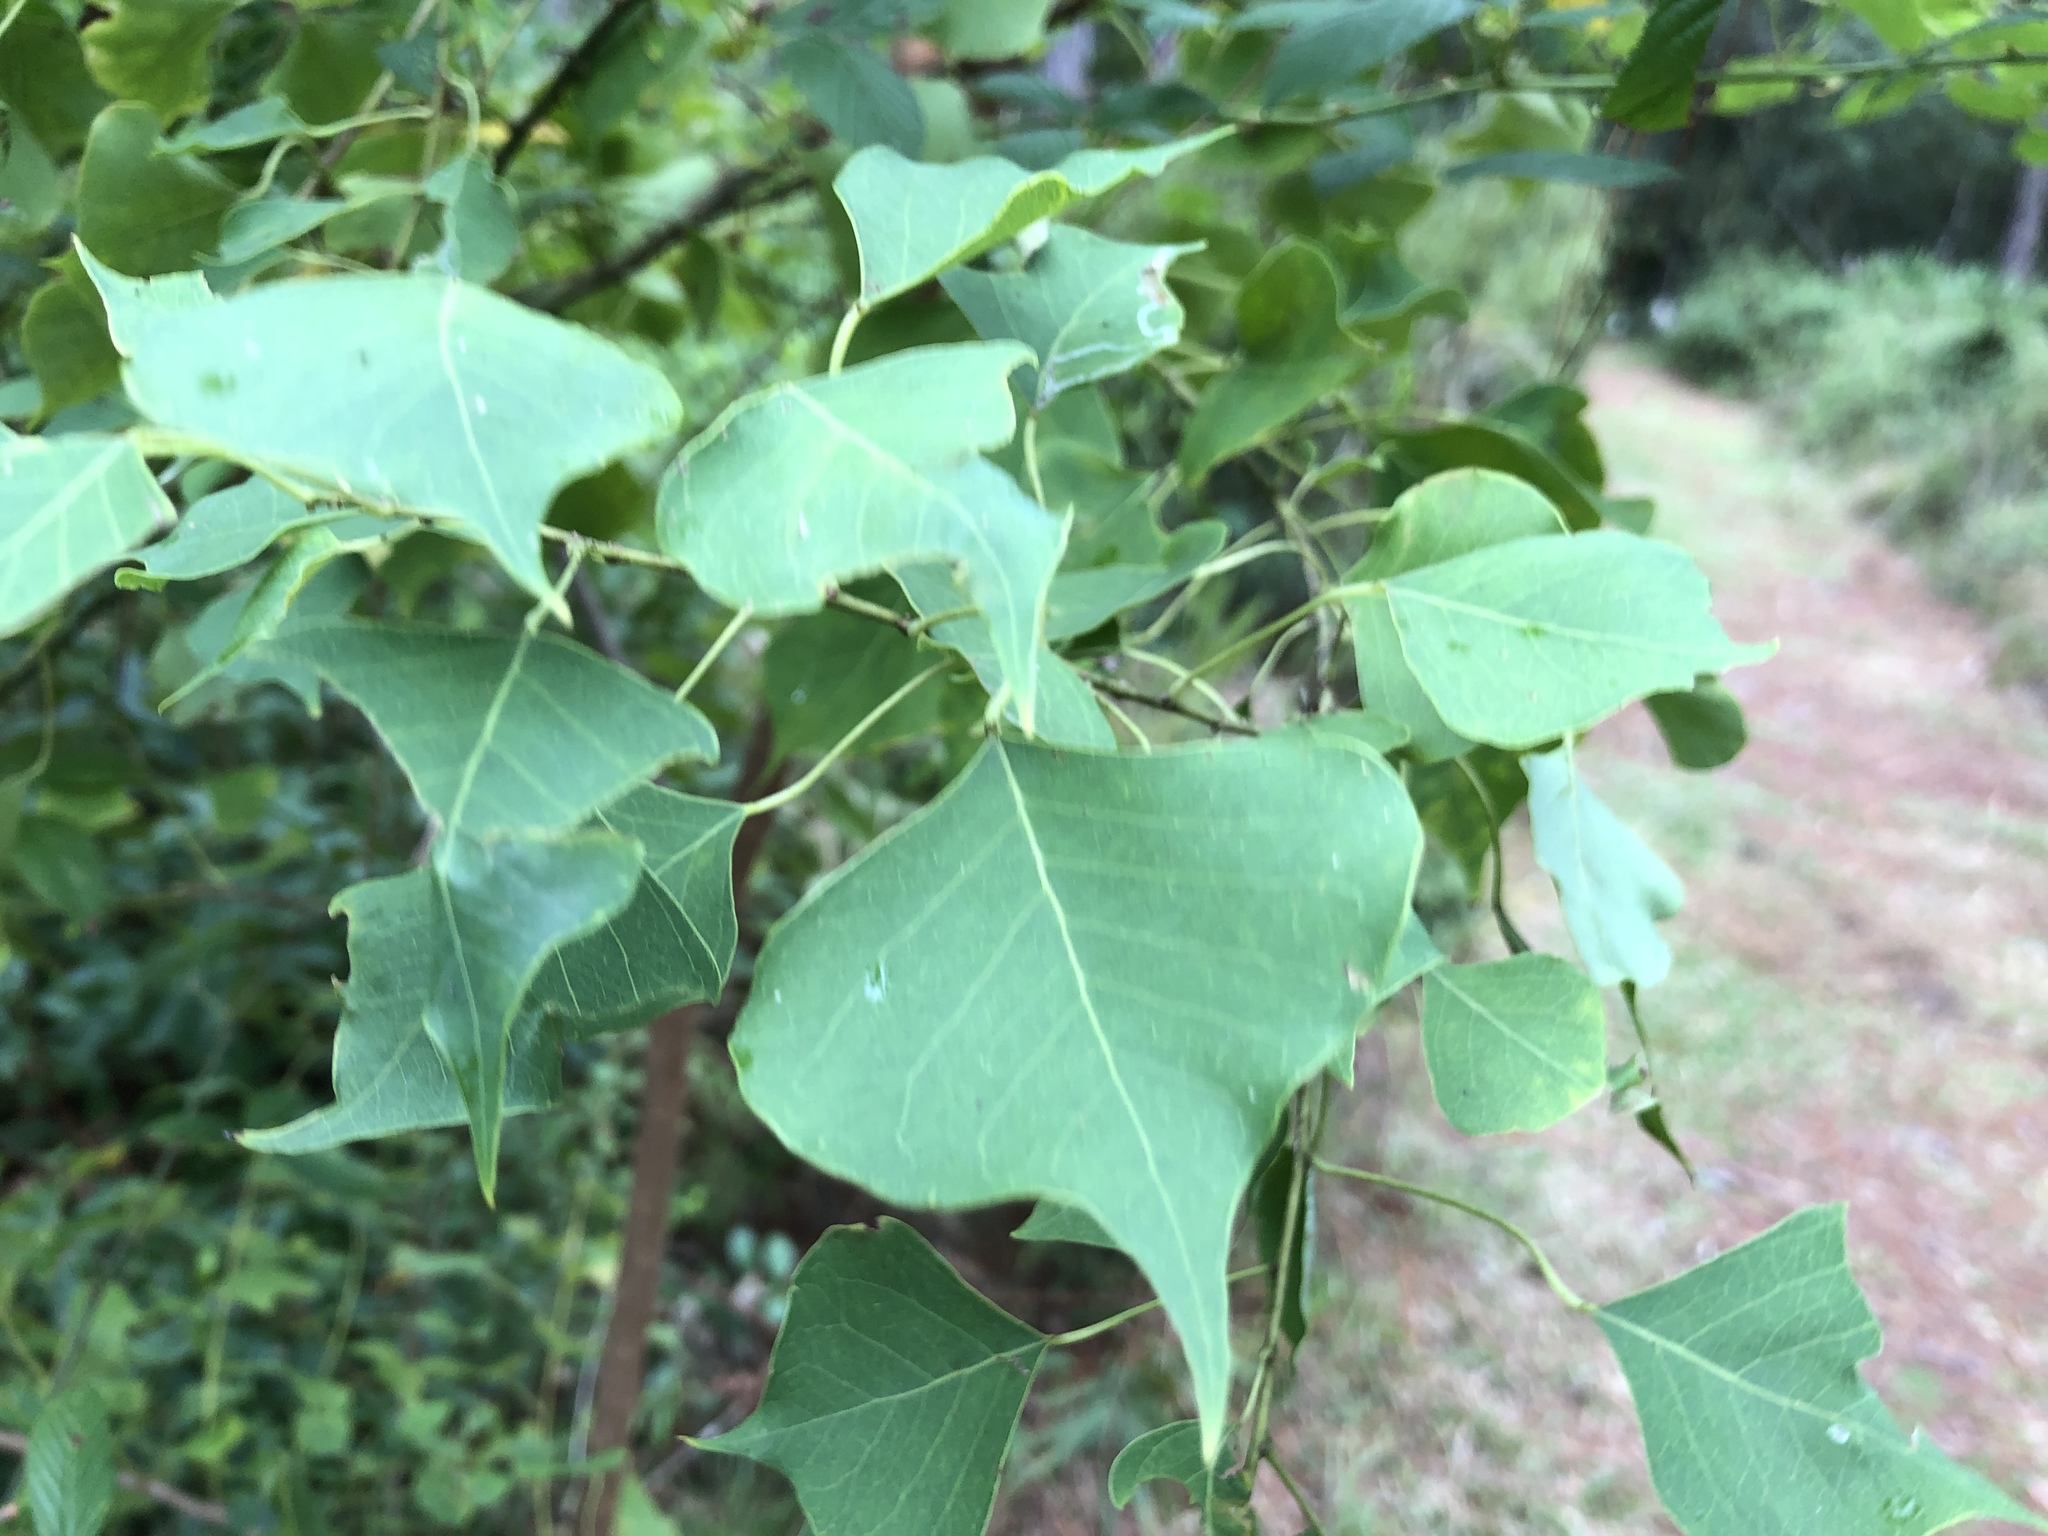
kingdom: Plantae
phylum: Tracheophyta
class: Magnoliopsida
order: Malpighiales
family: Euphorbiaceae
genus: Triadica
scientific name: Triadica sebifera
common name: Chinese tallow
